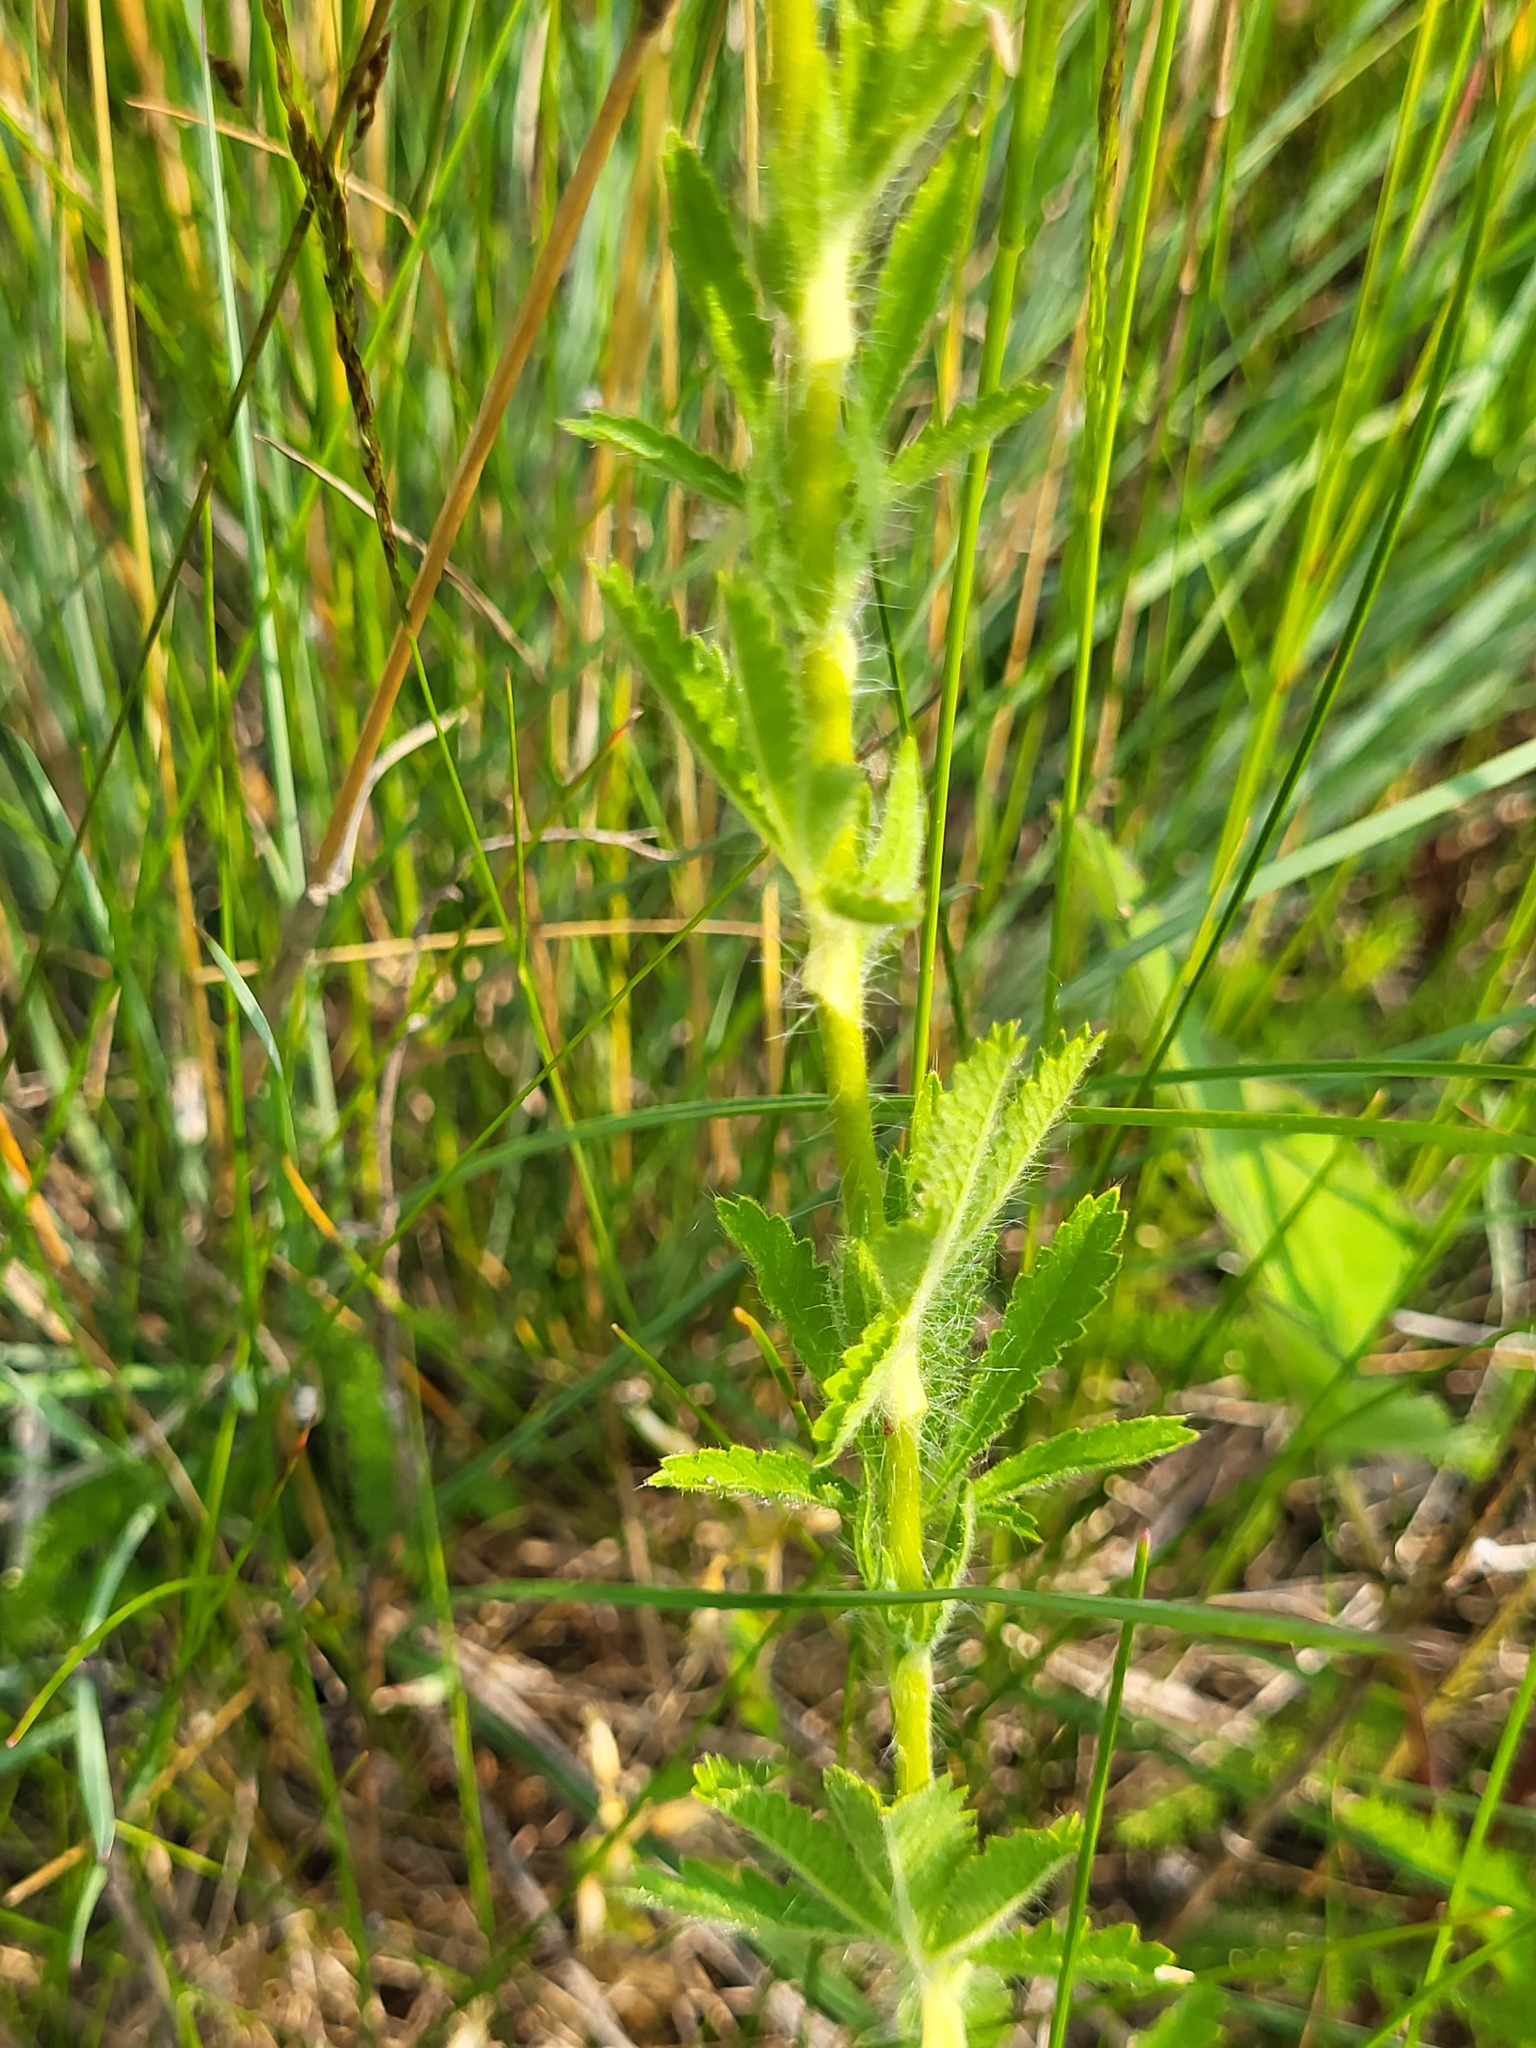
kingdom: Plantae
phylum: Tracheophyta
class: Magnoliopsida
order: Rosales
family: Rosaceae
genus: Potentilla
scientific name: Potentilla recta
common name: Sulphur cinquefoil
